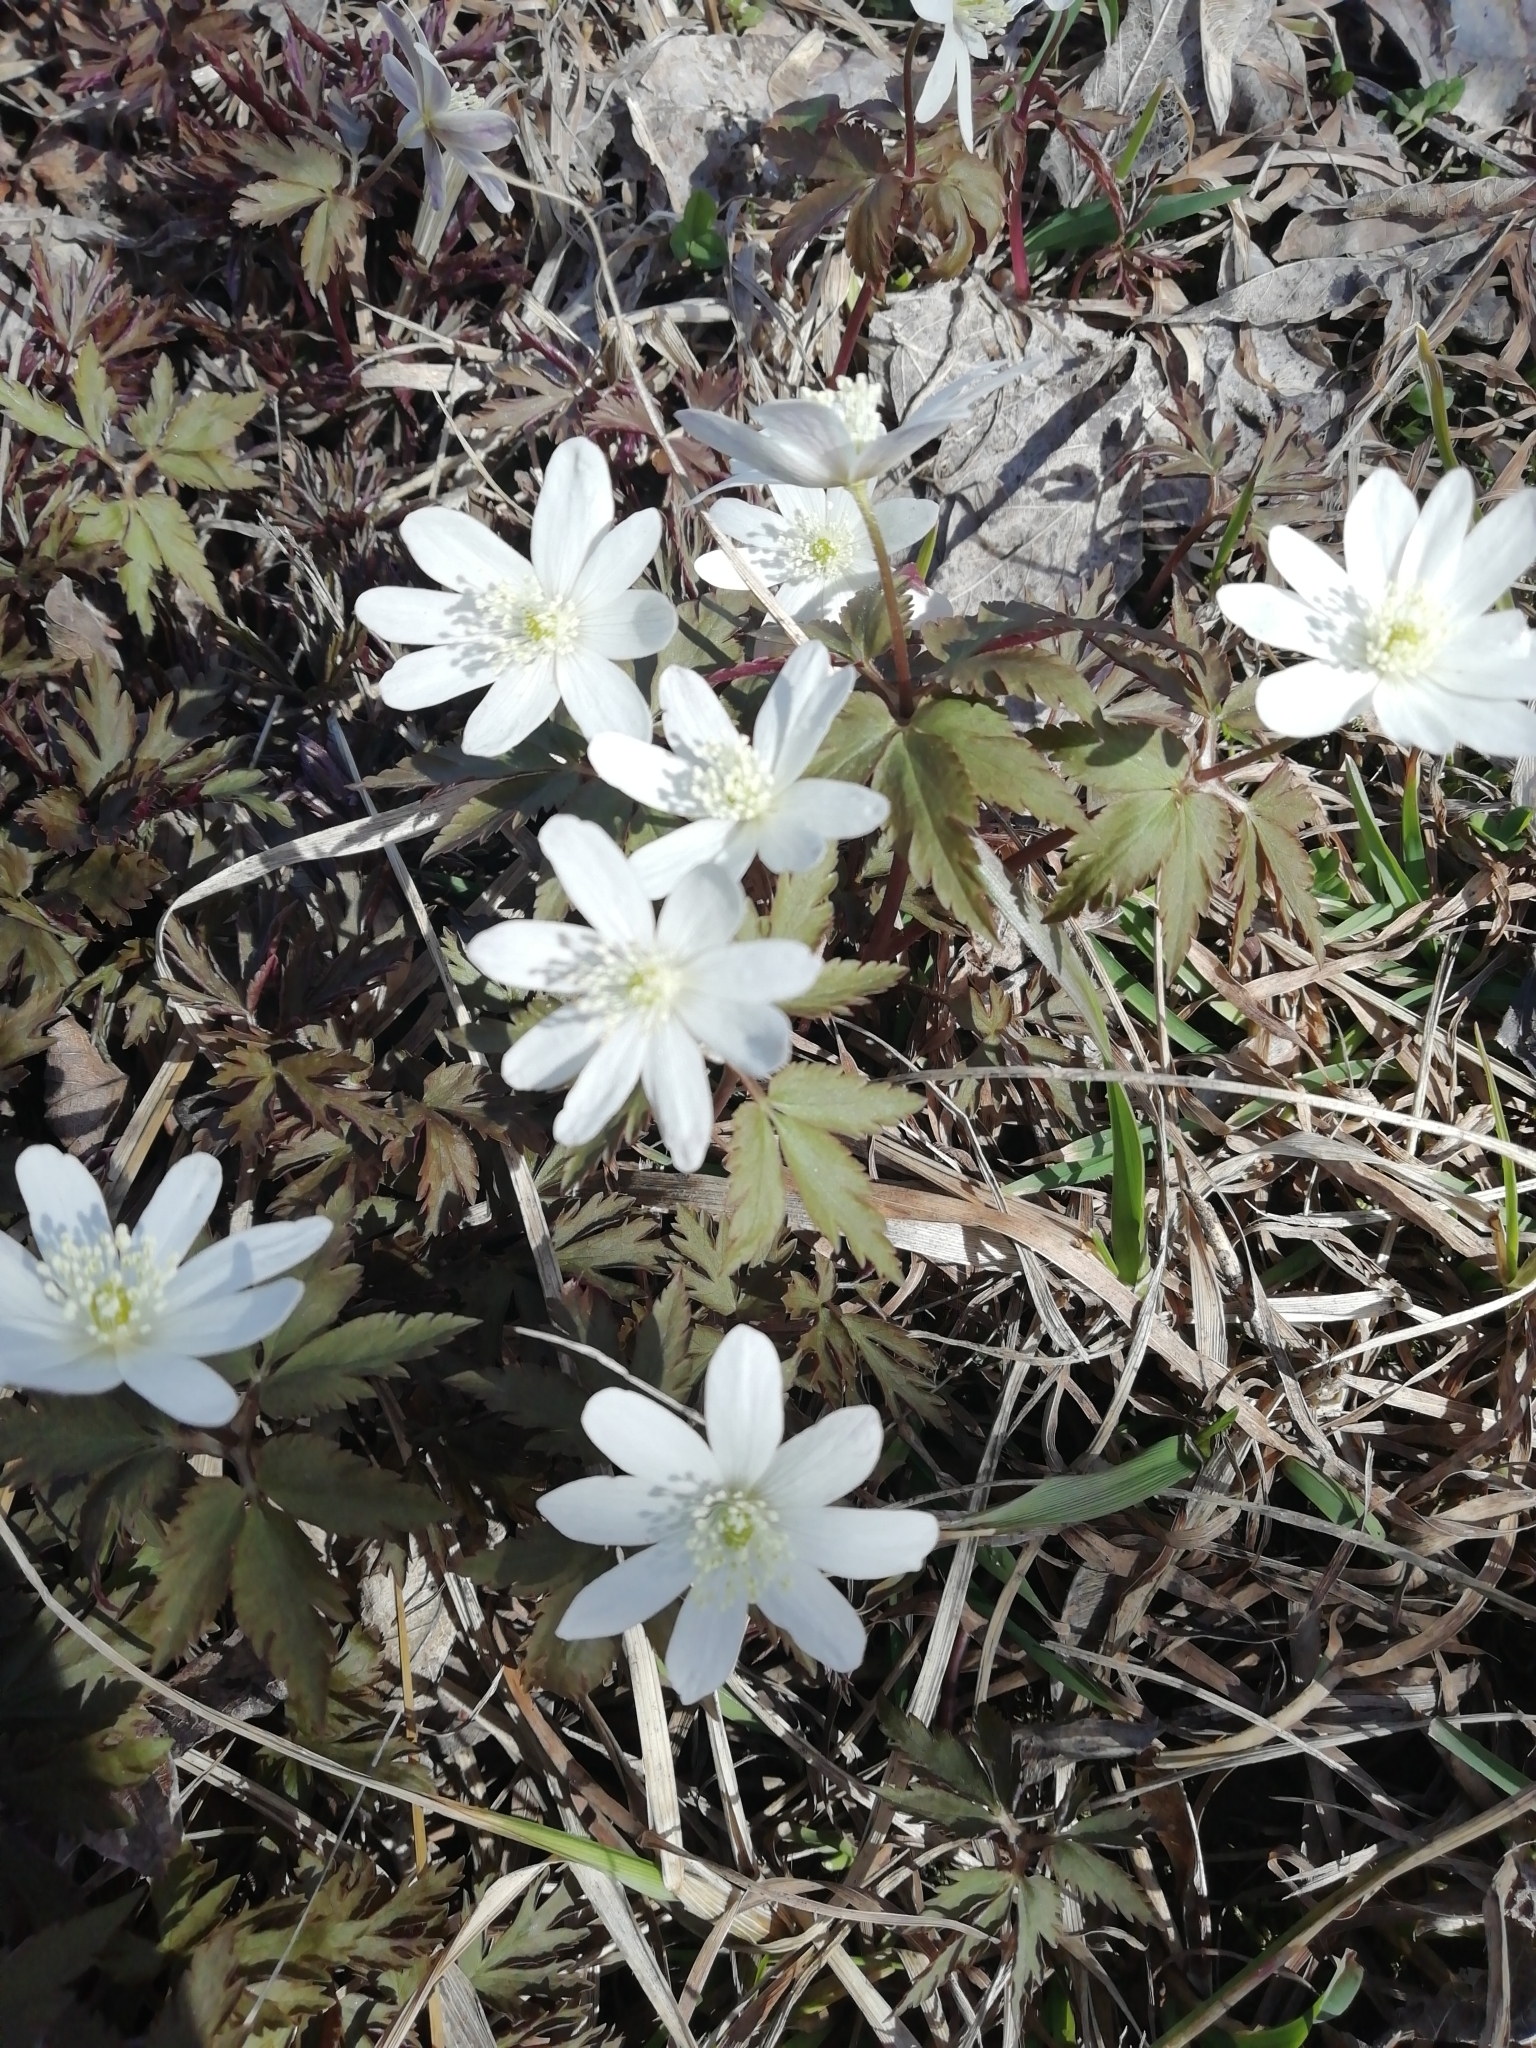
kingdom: Plantae
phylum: Tracheophyta
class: Magnoliopsida
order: Ranunculales
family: Ranunculaceae
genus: Anemone
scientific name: Anemone altaica
